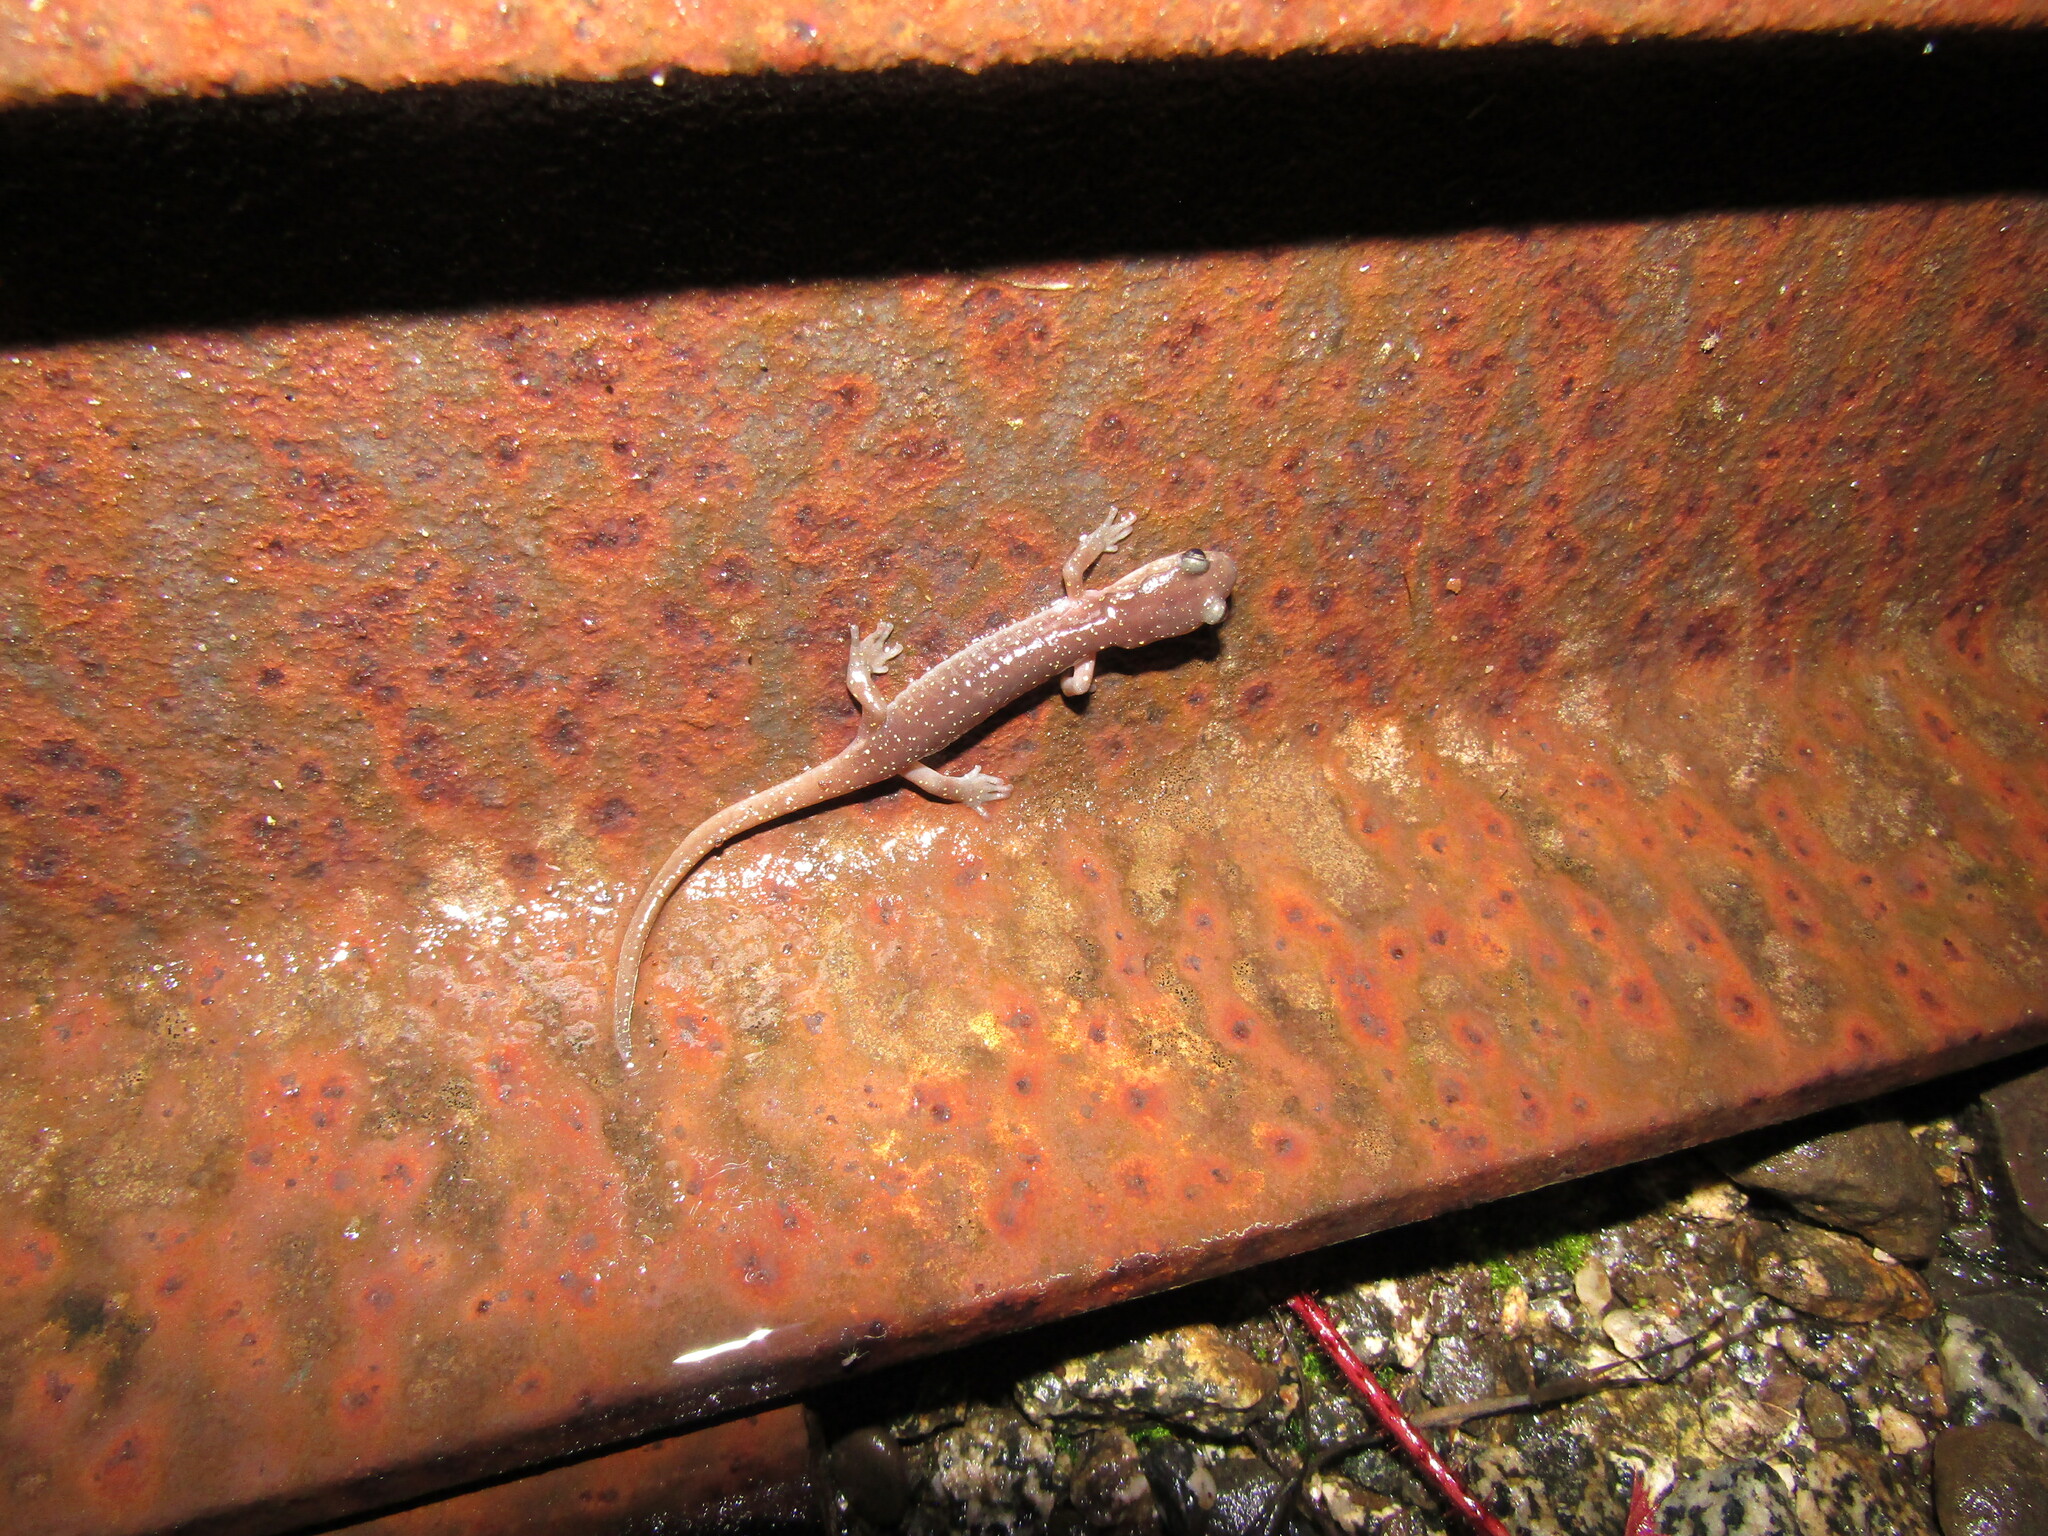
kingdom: Animalia
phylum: Chordata
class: Amphibia
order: Caudata
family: Plethodontidae
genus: Aneides
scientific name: Aneides lugubris
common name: Arboreal salamander
